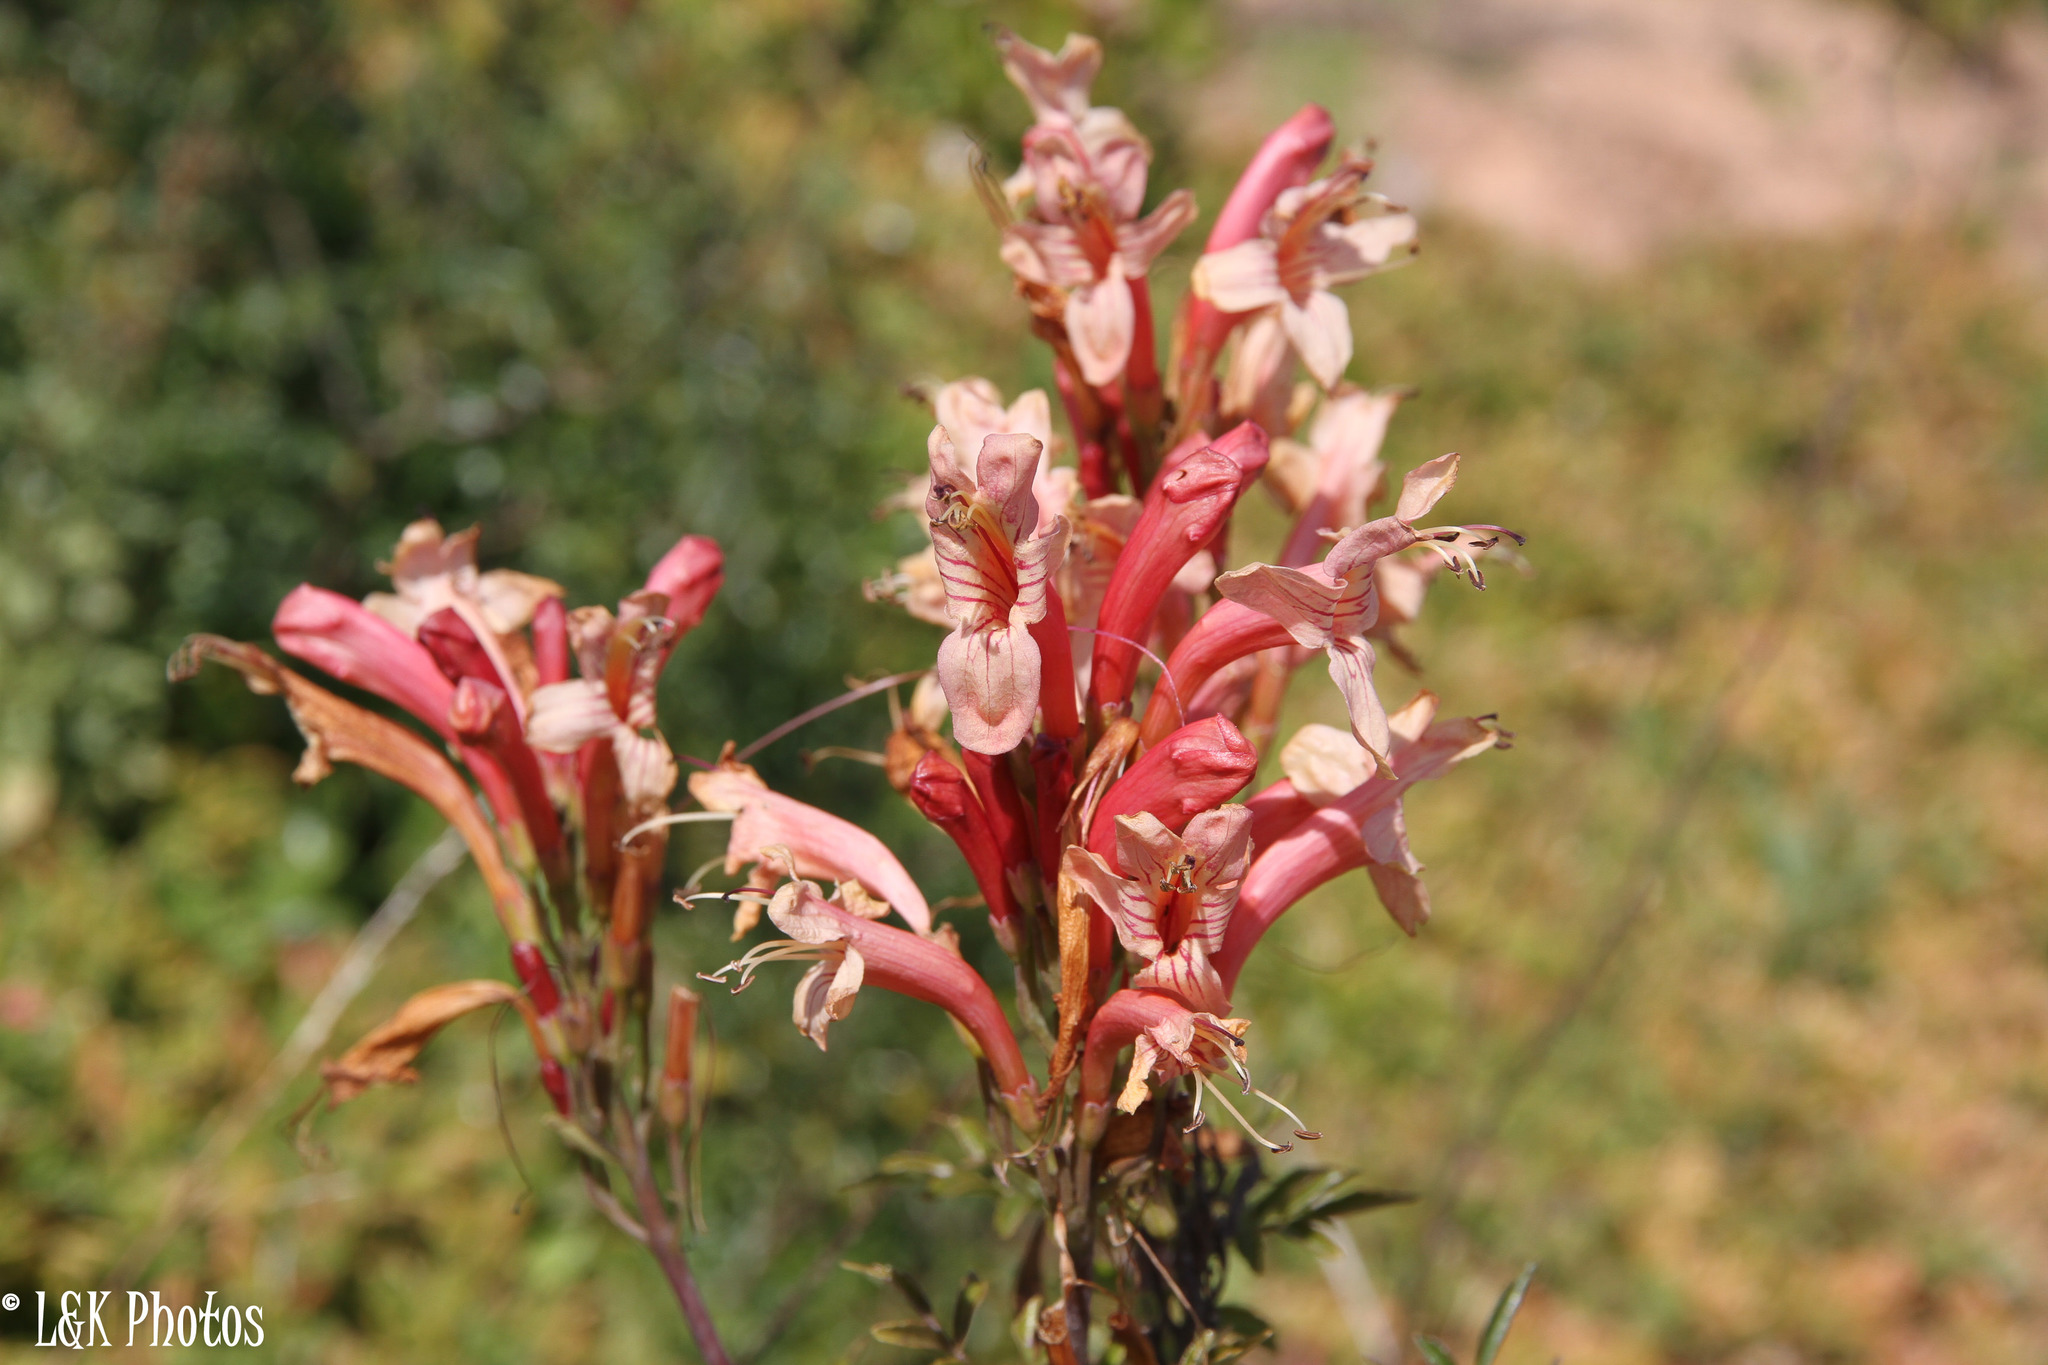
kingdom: Plantae
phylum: Tracheophyta
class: Magnoliopsida
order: Lamiales
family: Bignoniaceae
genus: Tecomaria
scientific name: Tecomaria capensis
